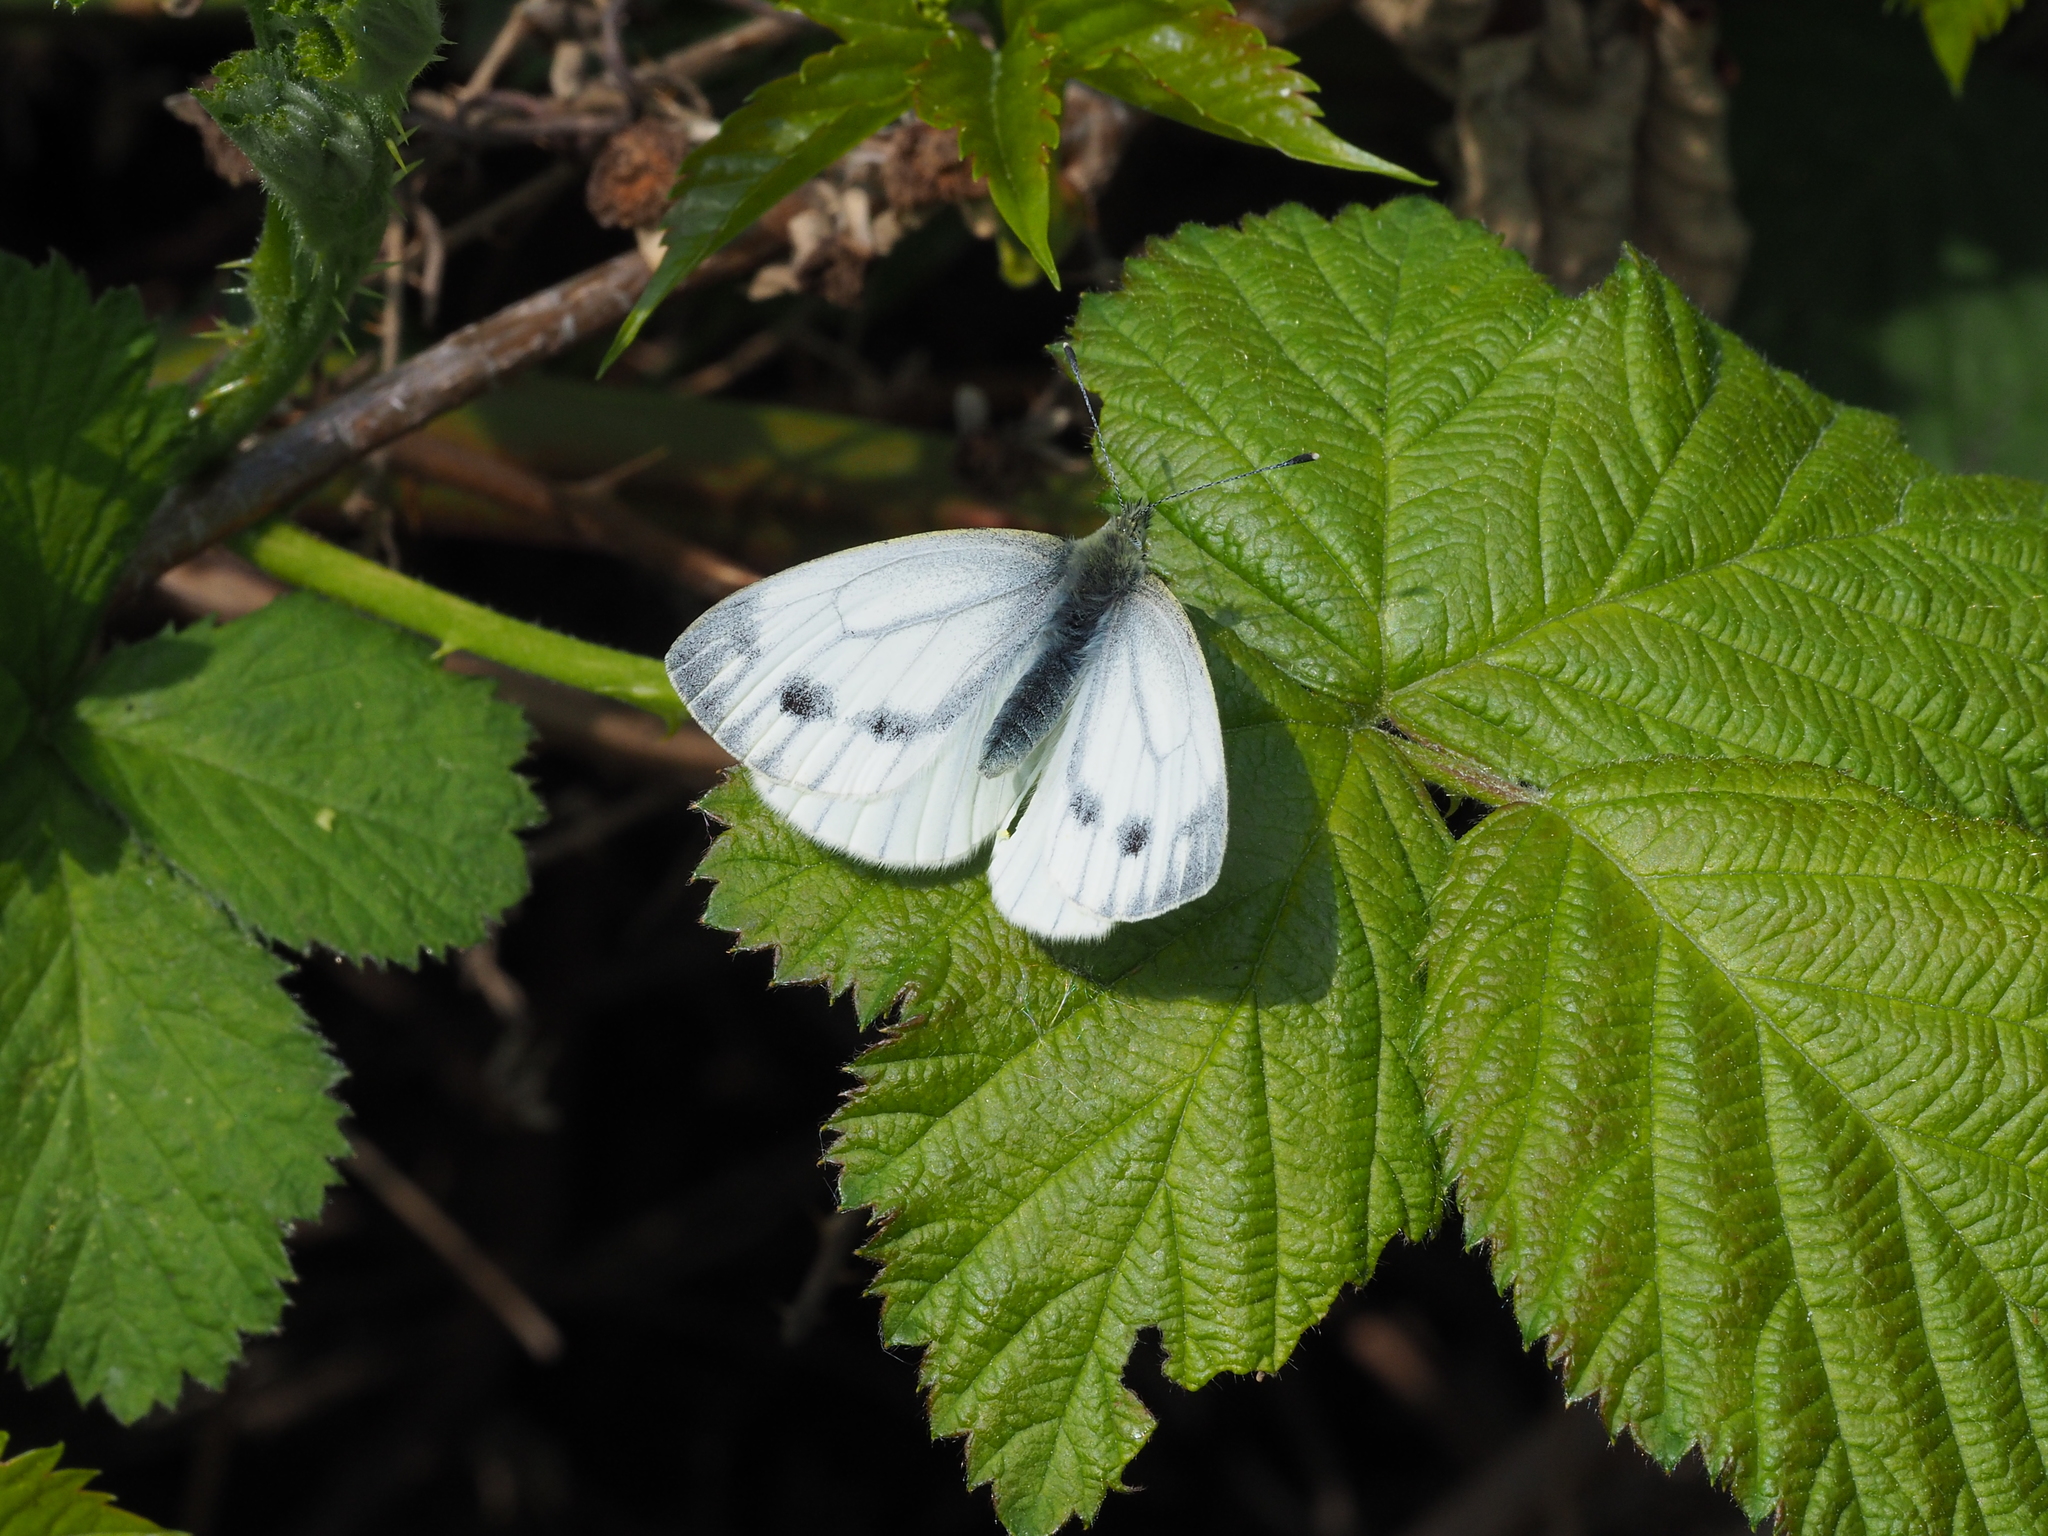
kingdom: Animalia
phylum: Arthropoda
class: Insecta
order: Lepidoptera
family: Pieridae
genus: Pieris
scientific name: Pieris napi
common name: Green-veined white
